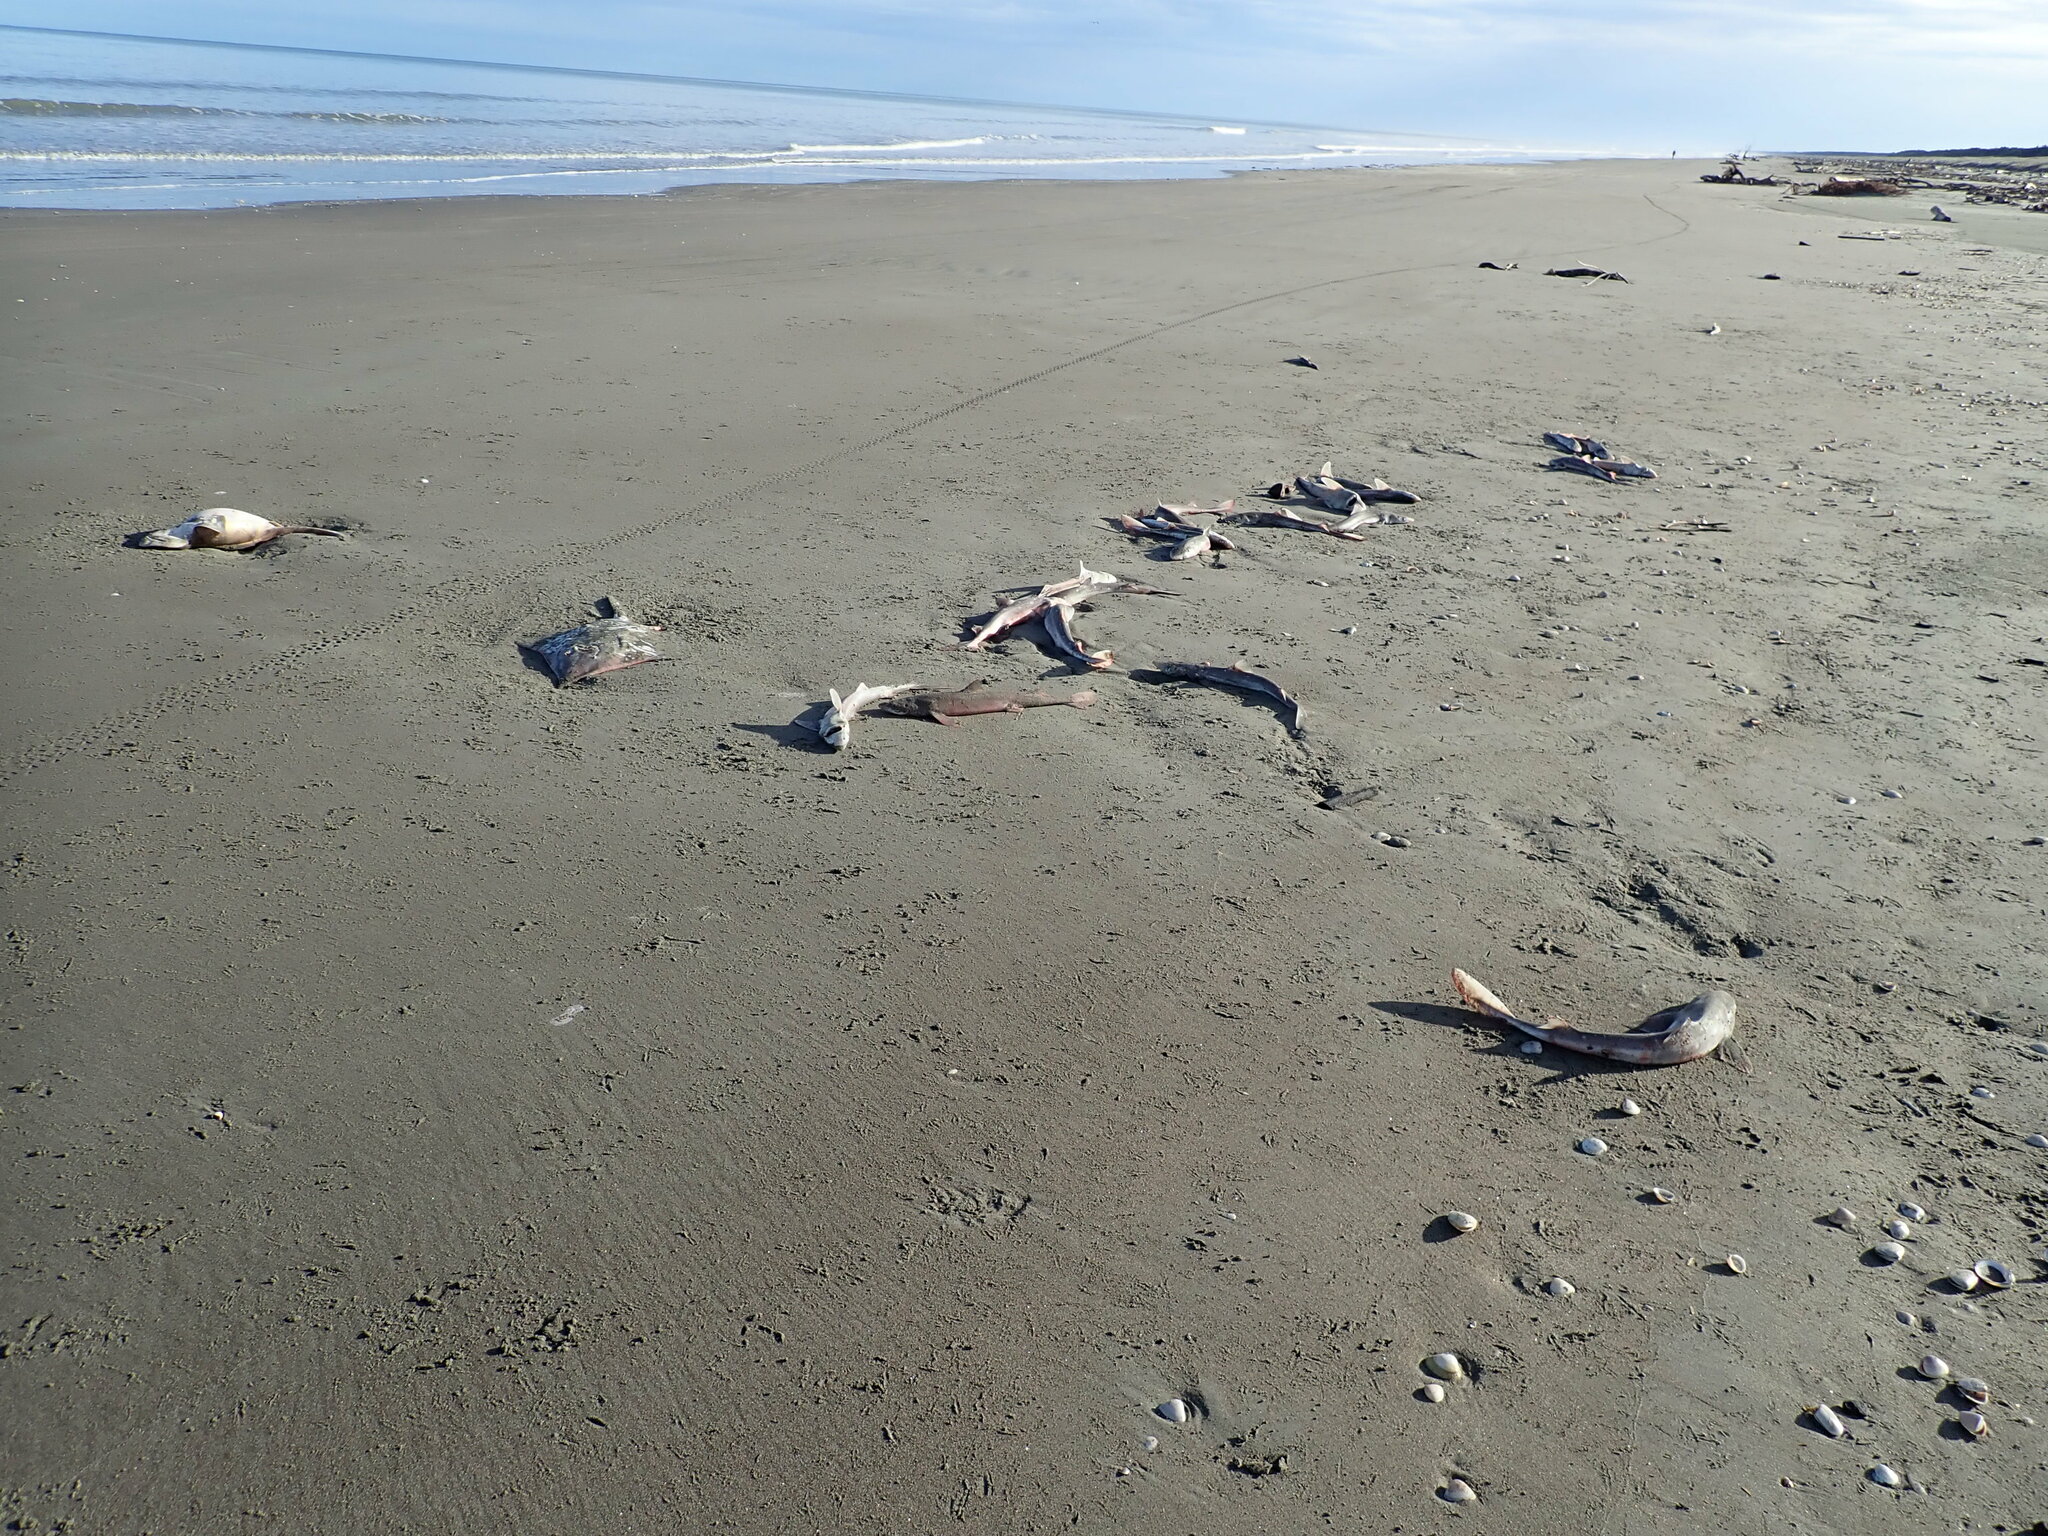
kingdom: Animalia
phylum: Chordata
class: Elasmobranchii
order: Carcharhiniformes
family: Scyliorhinidae
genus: Cephaloscyllium
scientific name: Cephaloscyllium isabellum
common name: Carpet shark
